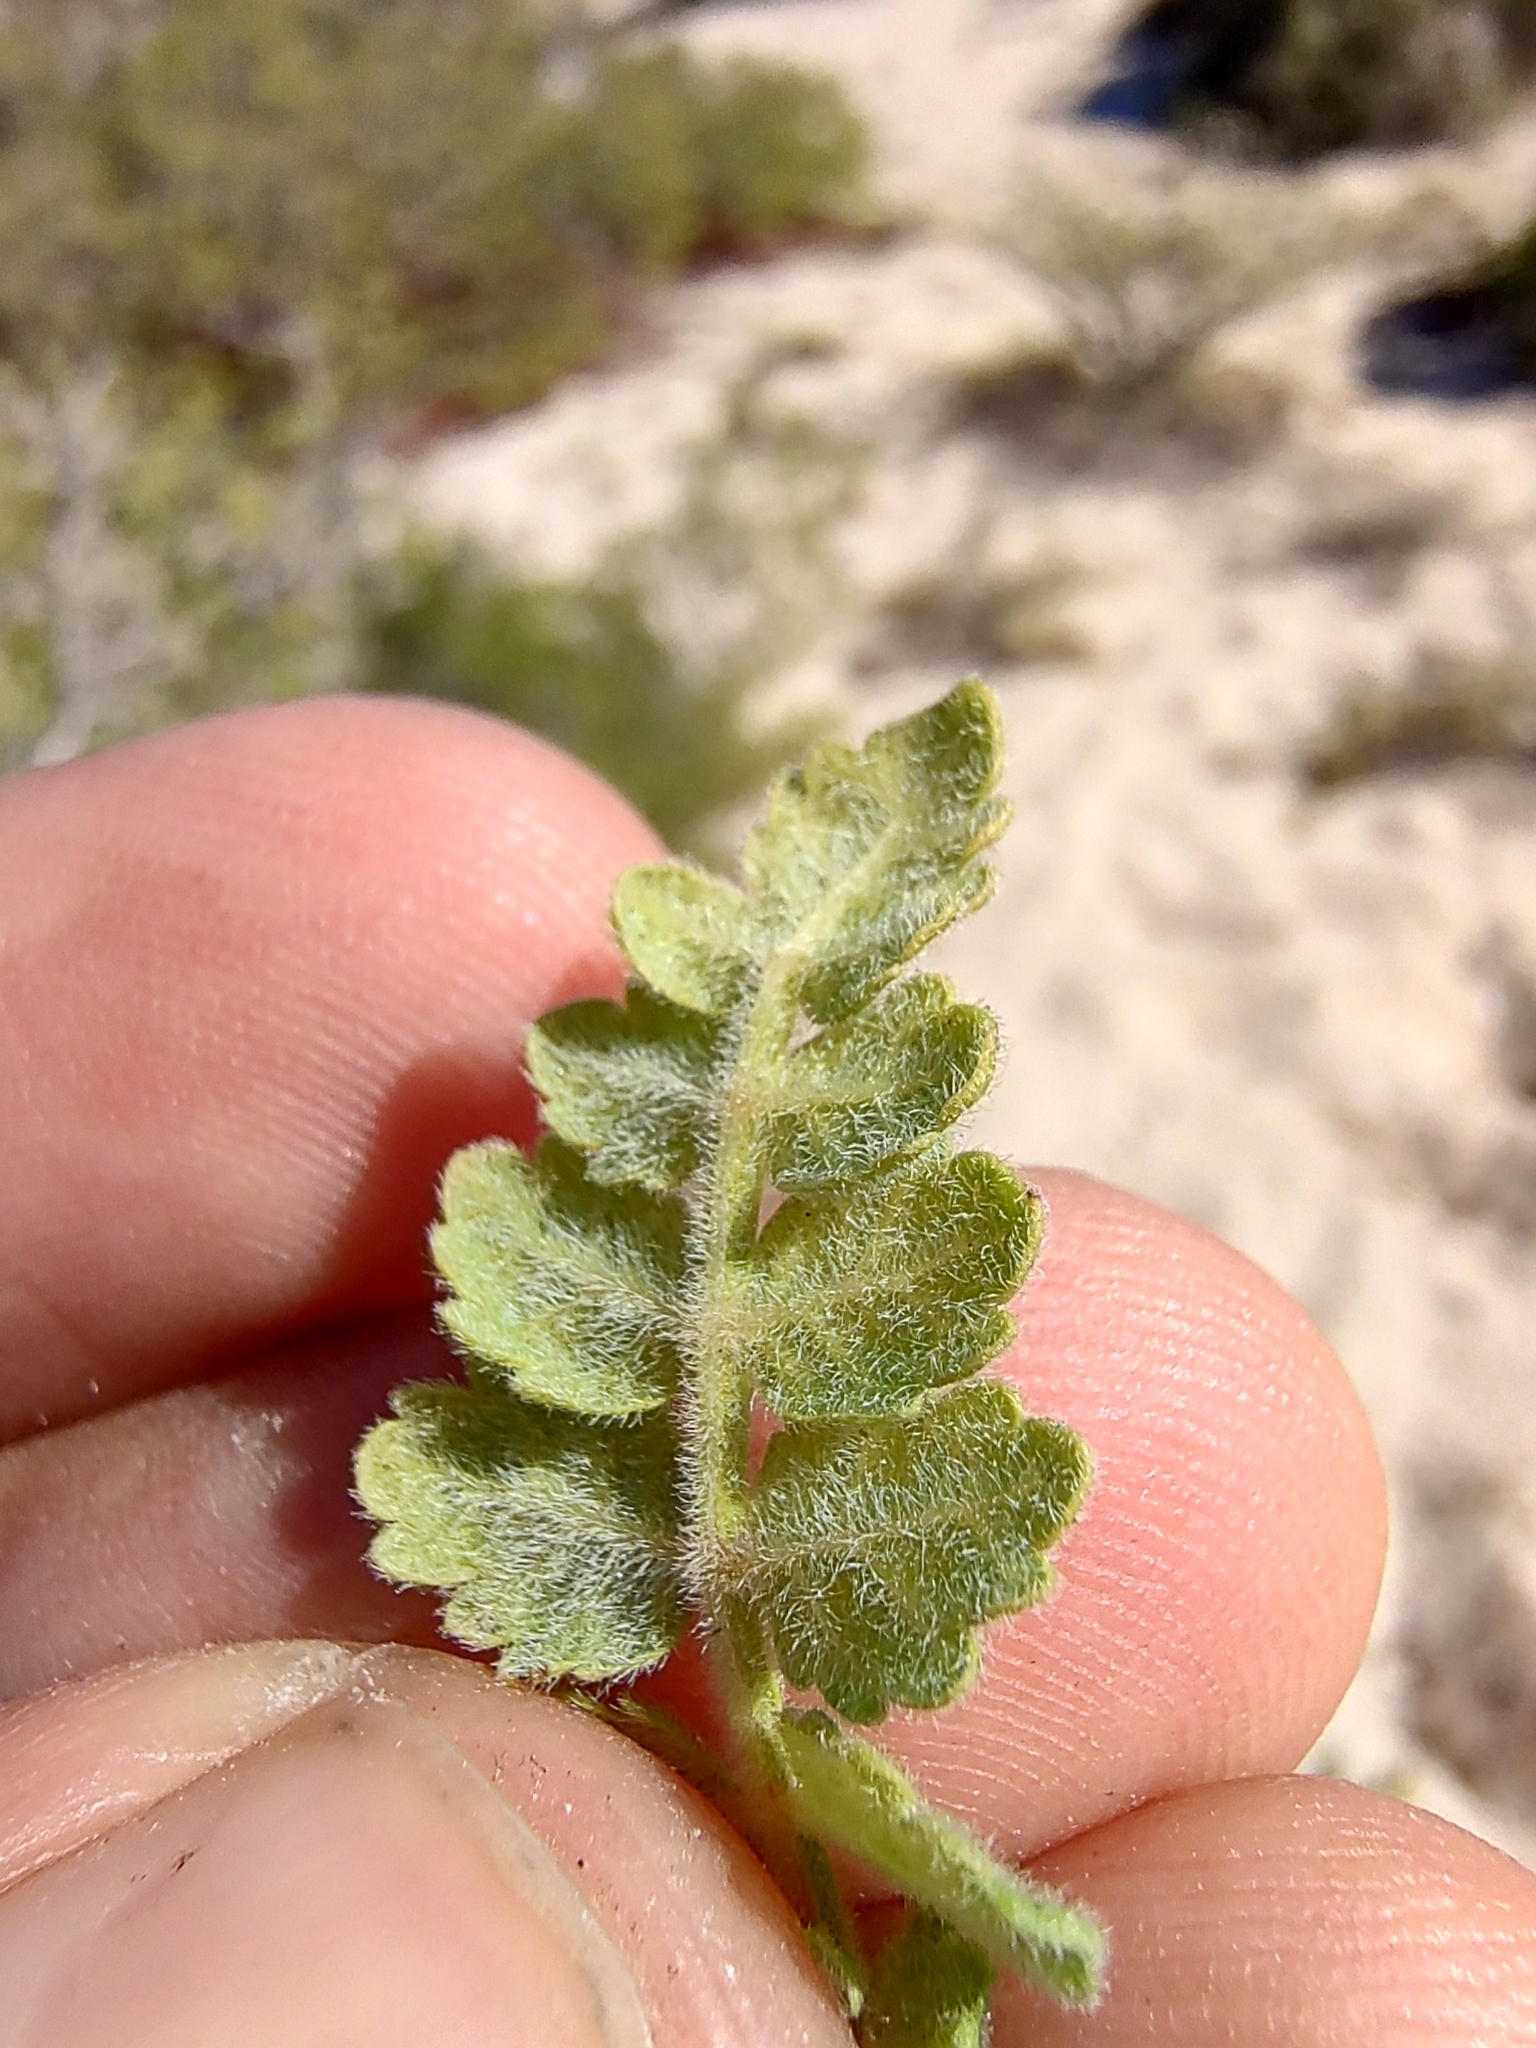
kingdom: Plantae
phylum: Tracheophyta
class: Magnoliopsida
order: Sapindales
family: Burseraceae
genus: Bursera
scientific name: Bursera filicifolia
